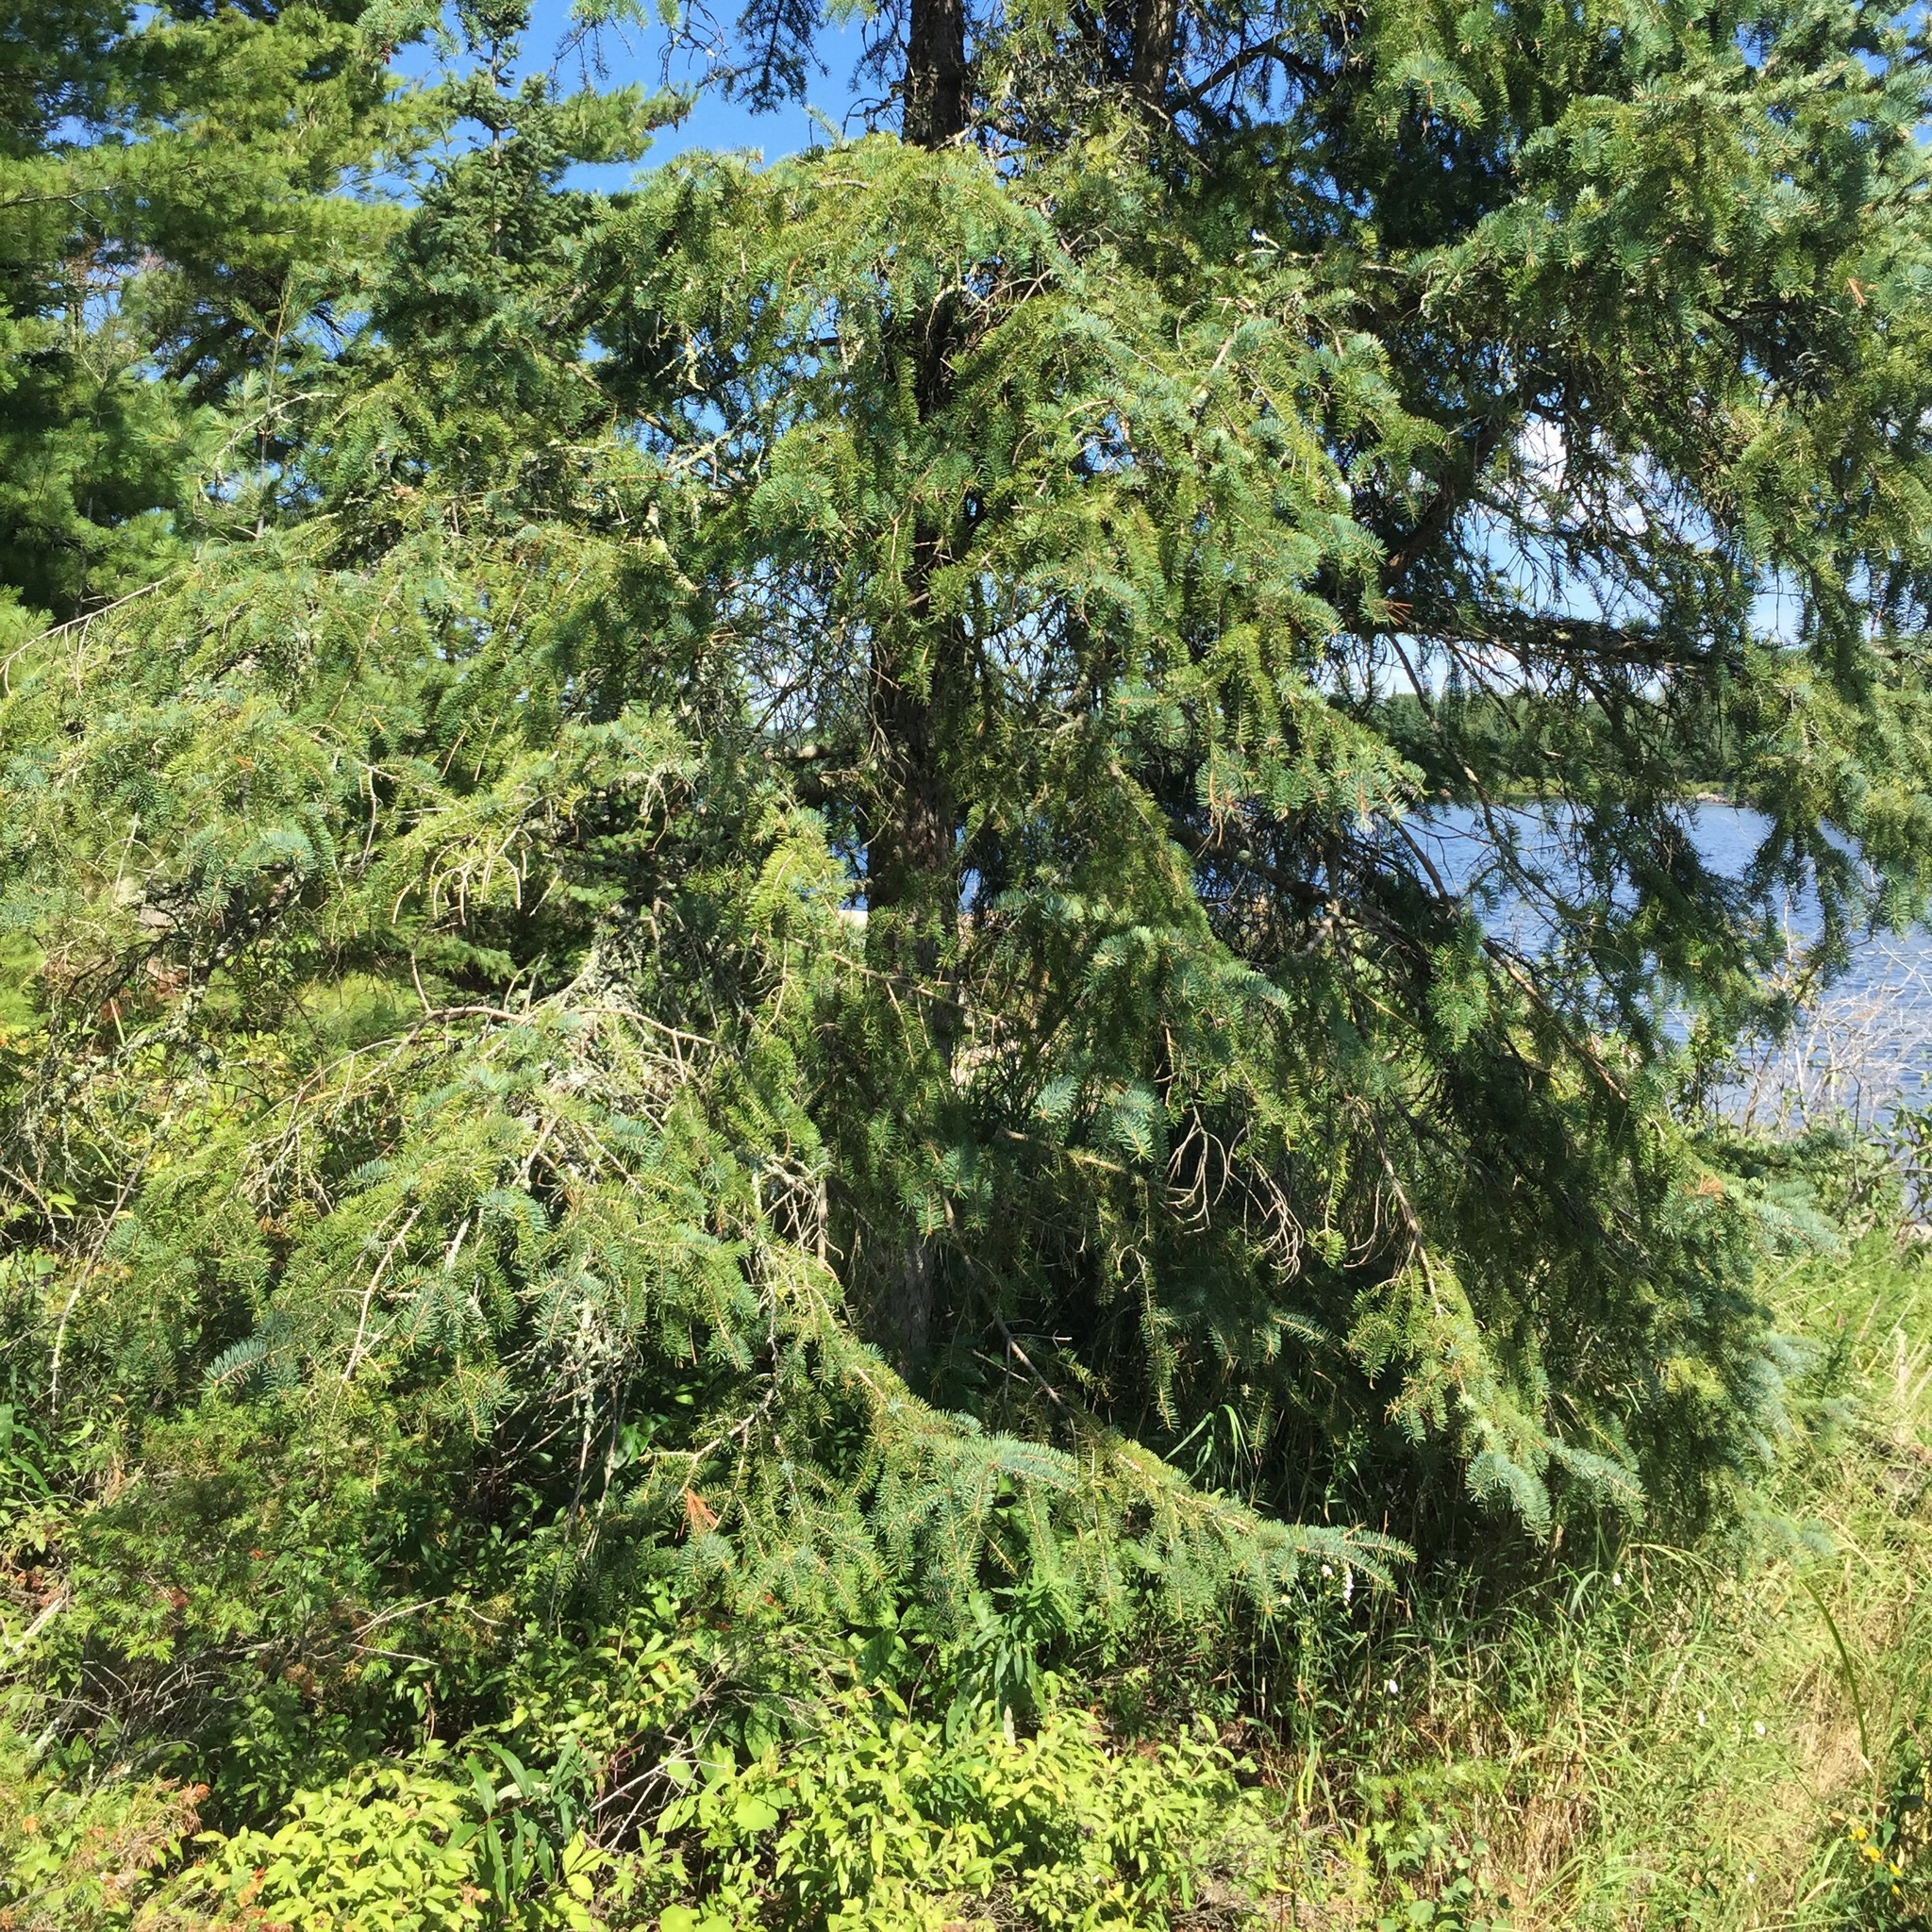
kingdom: Plantae
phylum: Tracheophyta
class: Pinopsida
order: Pinales
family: Pinaceae
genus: Picea
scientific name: Picea glauca
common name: White spruce
